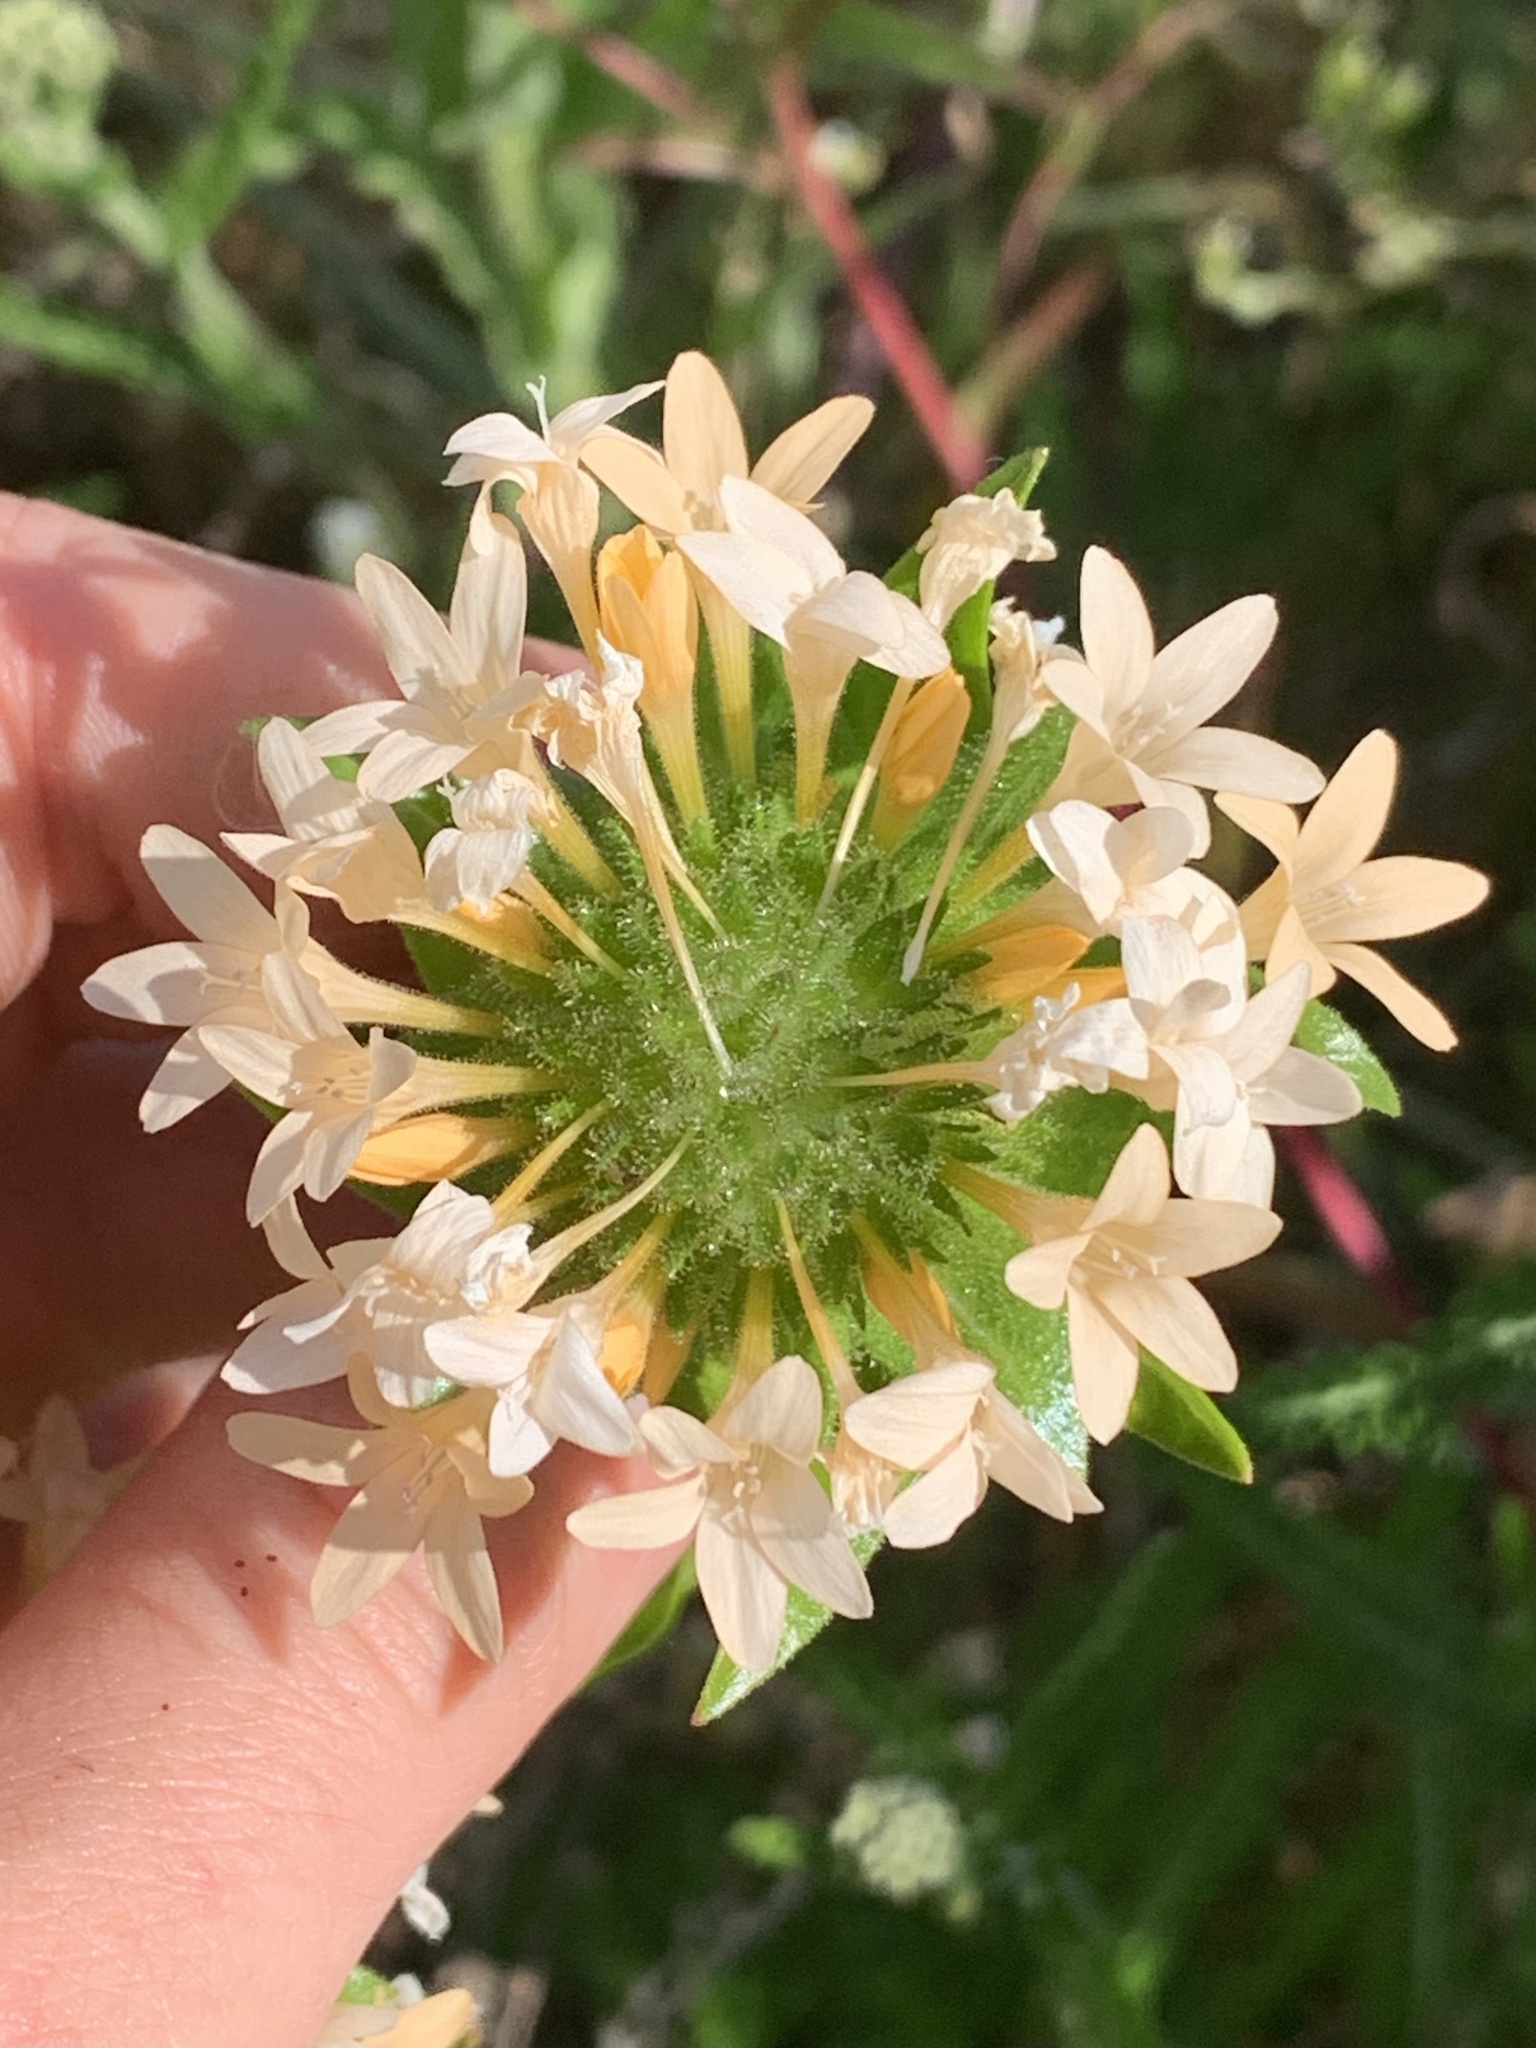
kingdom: Plantae
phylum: Tracheophyta
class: Magnoliopsida
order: Ericales
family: Polemoniaceae
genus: Collomia
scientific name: Collomia grandiflora
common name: California strawflower
